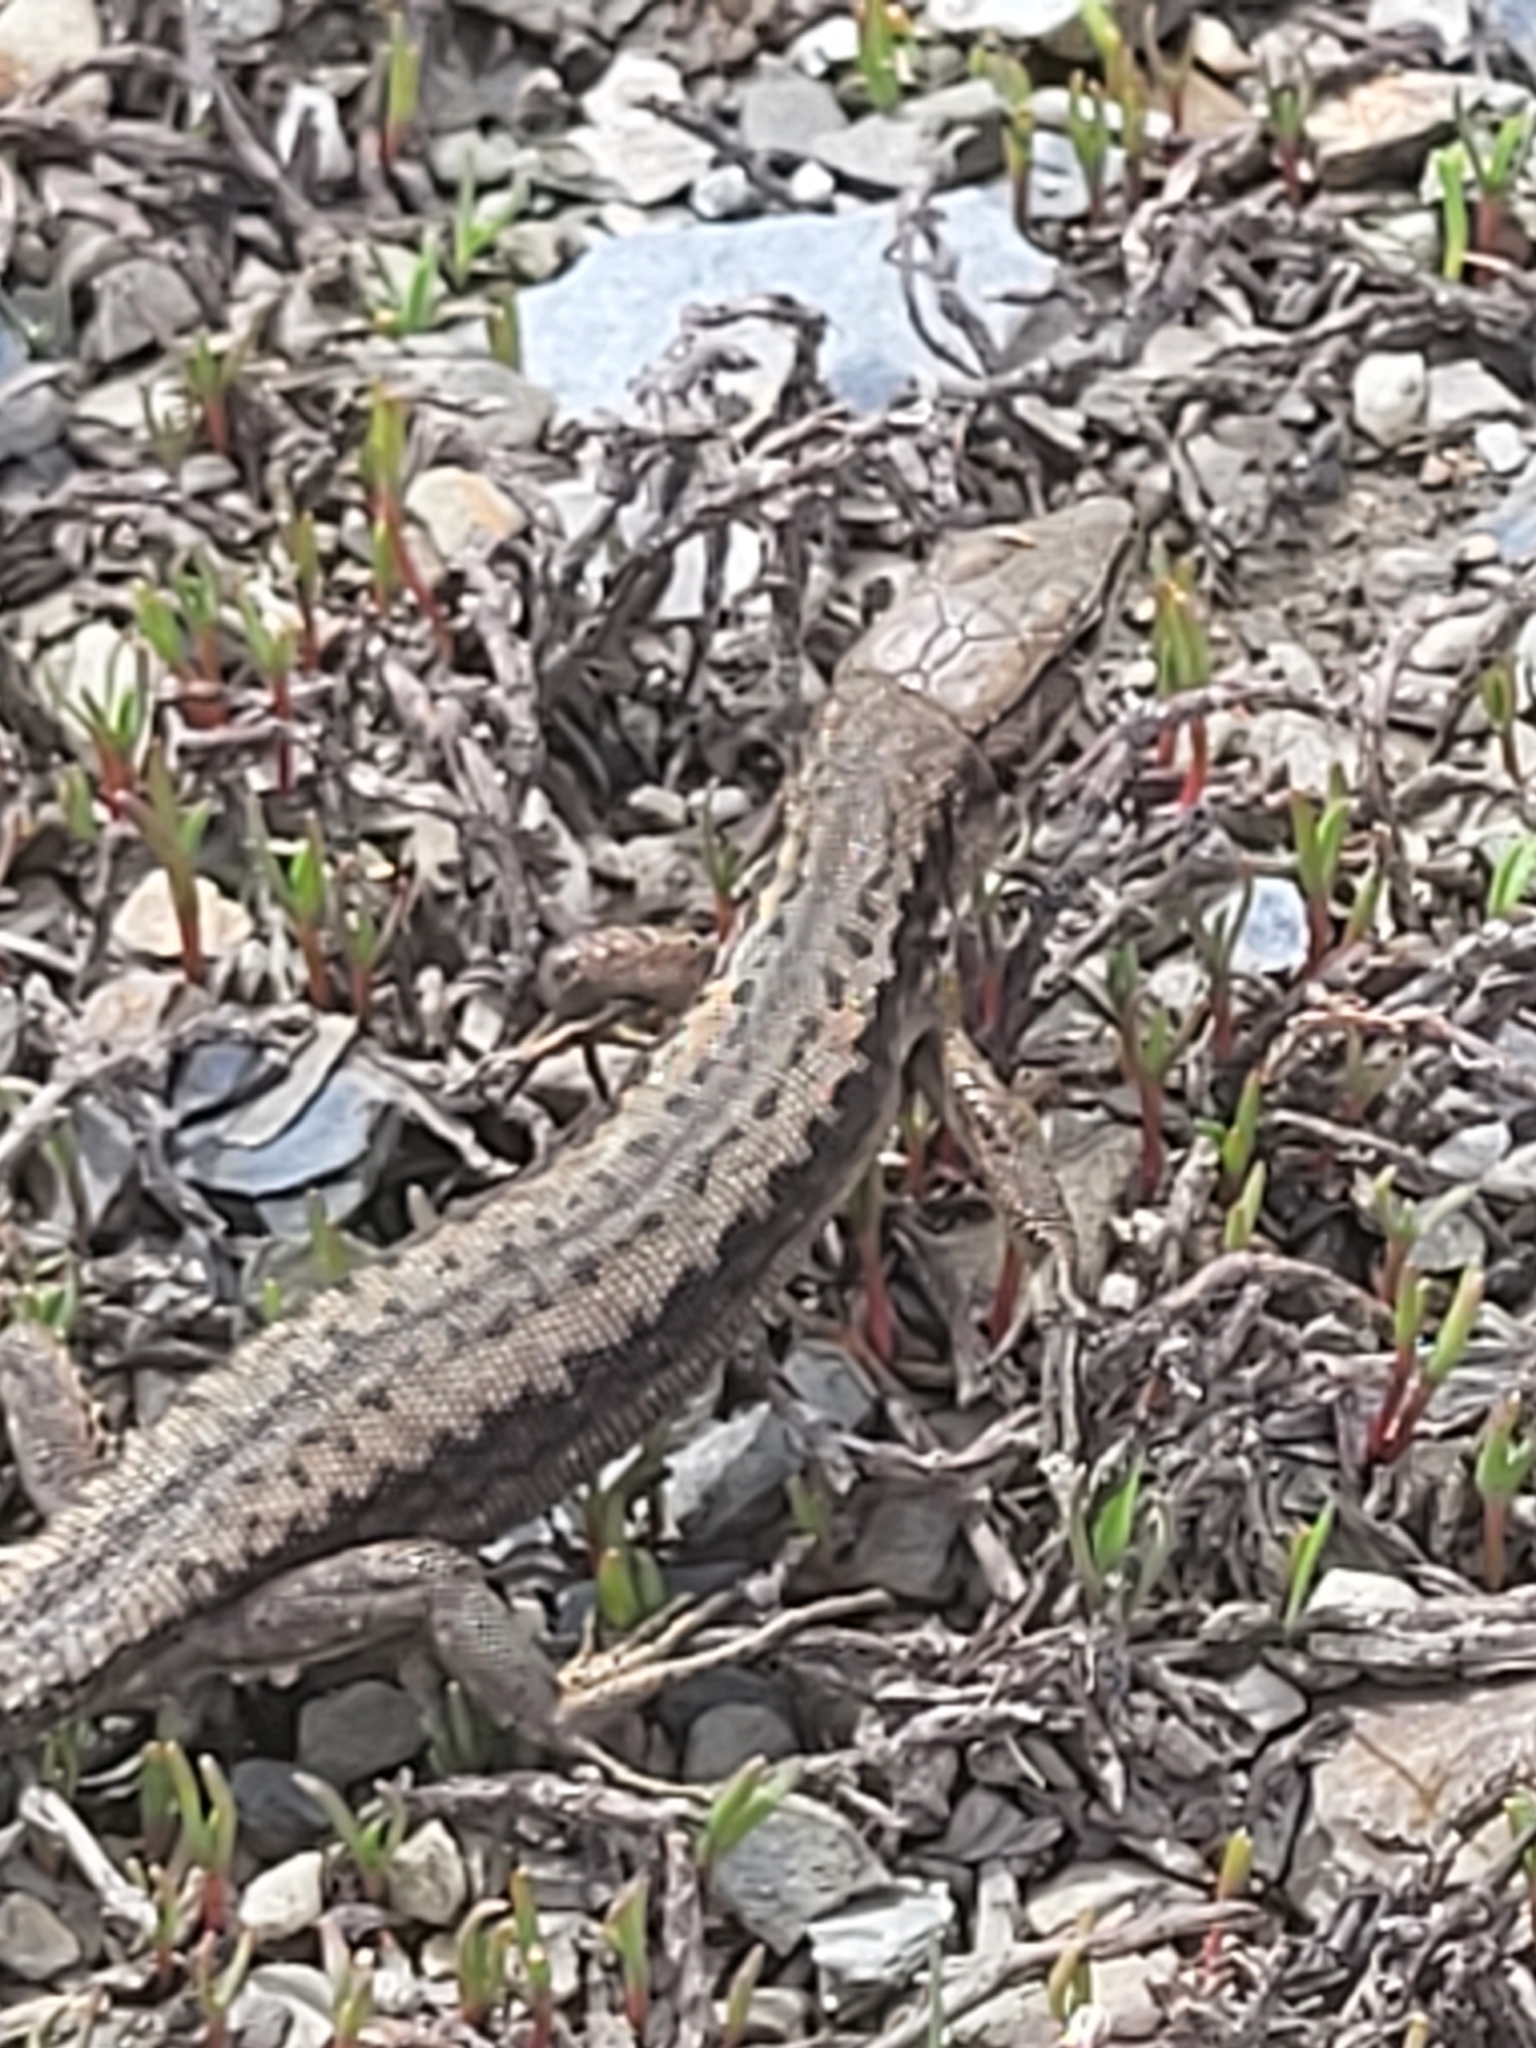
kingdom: Animalia
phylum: Chordata
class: Squamata
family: Lacertidae
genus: Darevskia
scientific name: Darevskia caucasica
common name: Caucasian llzard
